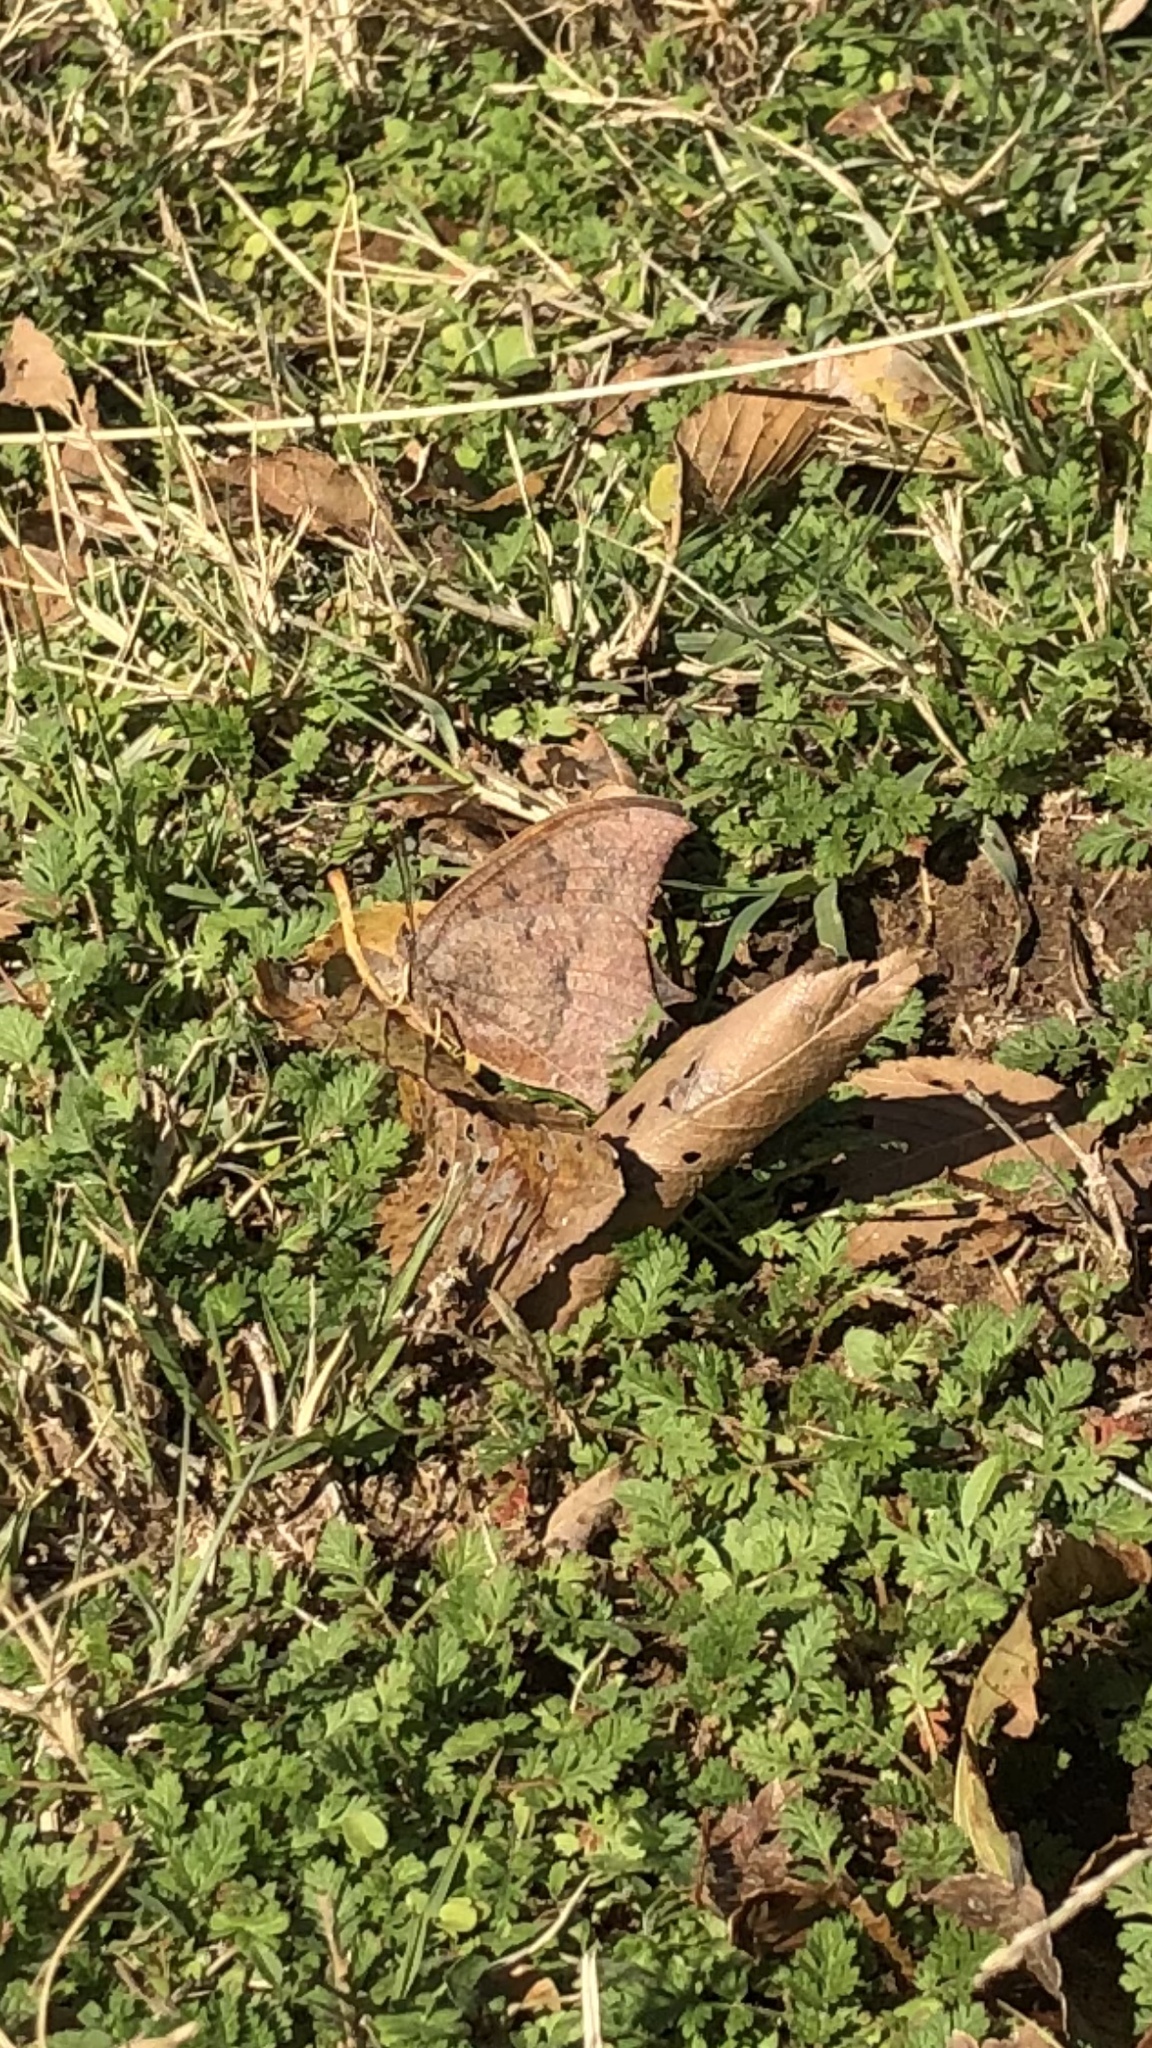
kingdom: Animalia
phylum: Arthropoda
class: Insecta
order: Lepidoptera
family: Nymphalidae
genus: Anaea
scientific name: Anaea andria
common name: Goatweed leafwing
